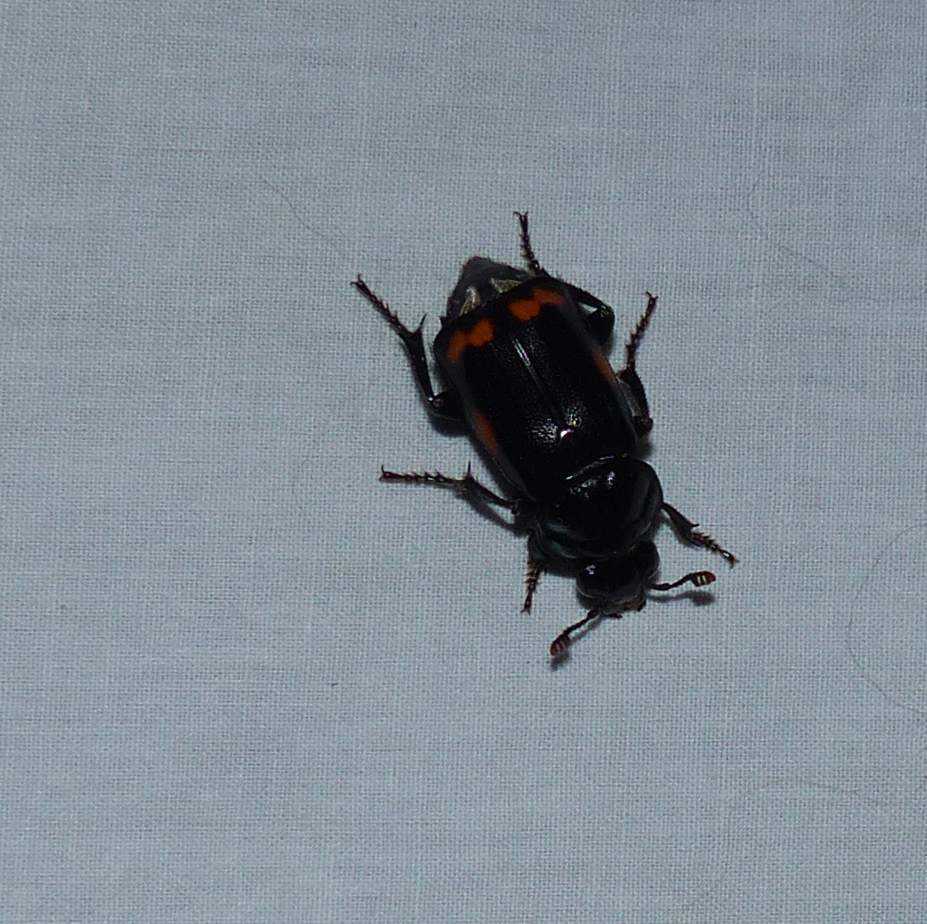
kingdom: Animalia
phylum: Arthropoda
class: Insecta
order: Coleoptera
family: Staphylinidae
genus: Nicrophorus
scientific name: Nicrophorus pustulatus
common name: Pustulated carrion beetle
